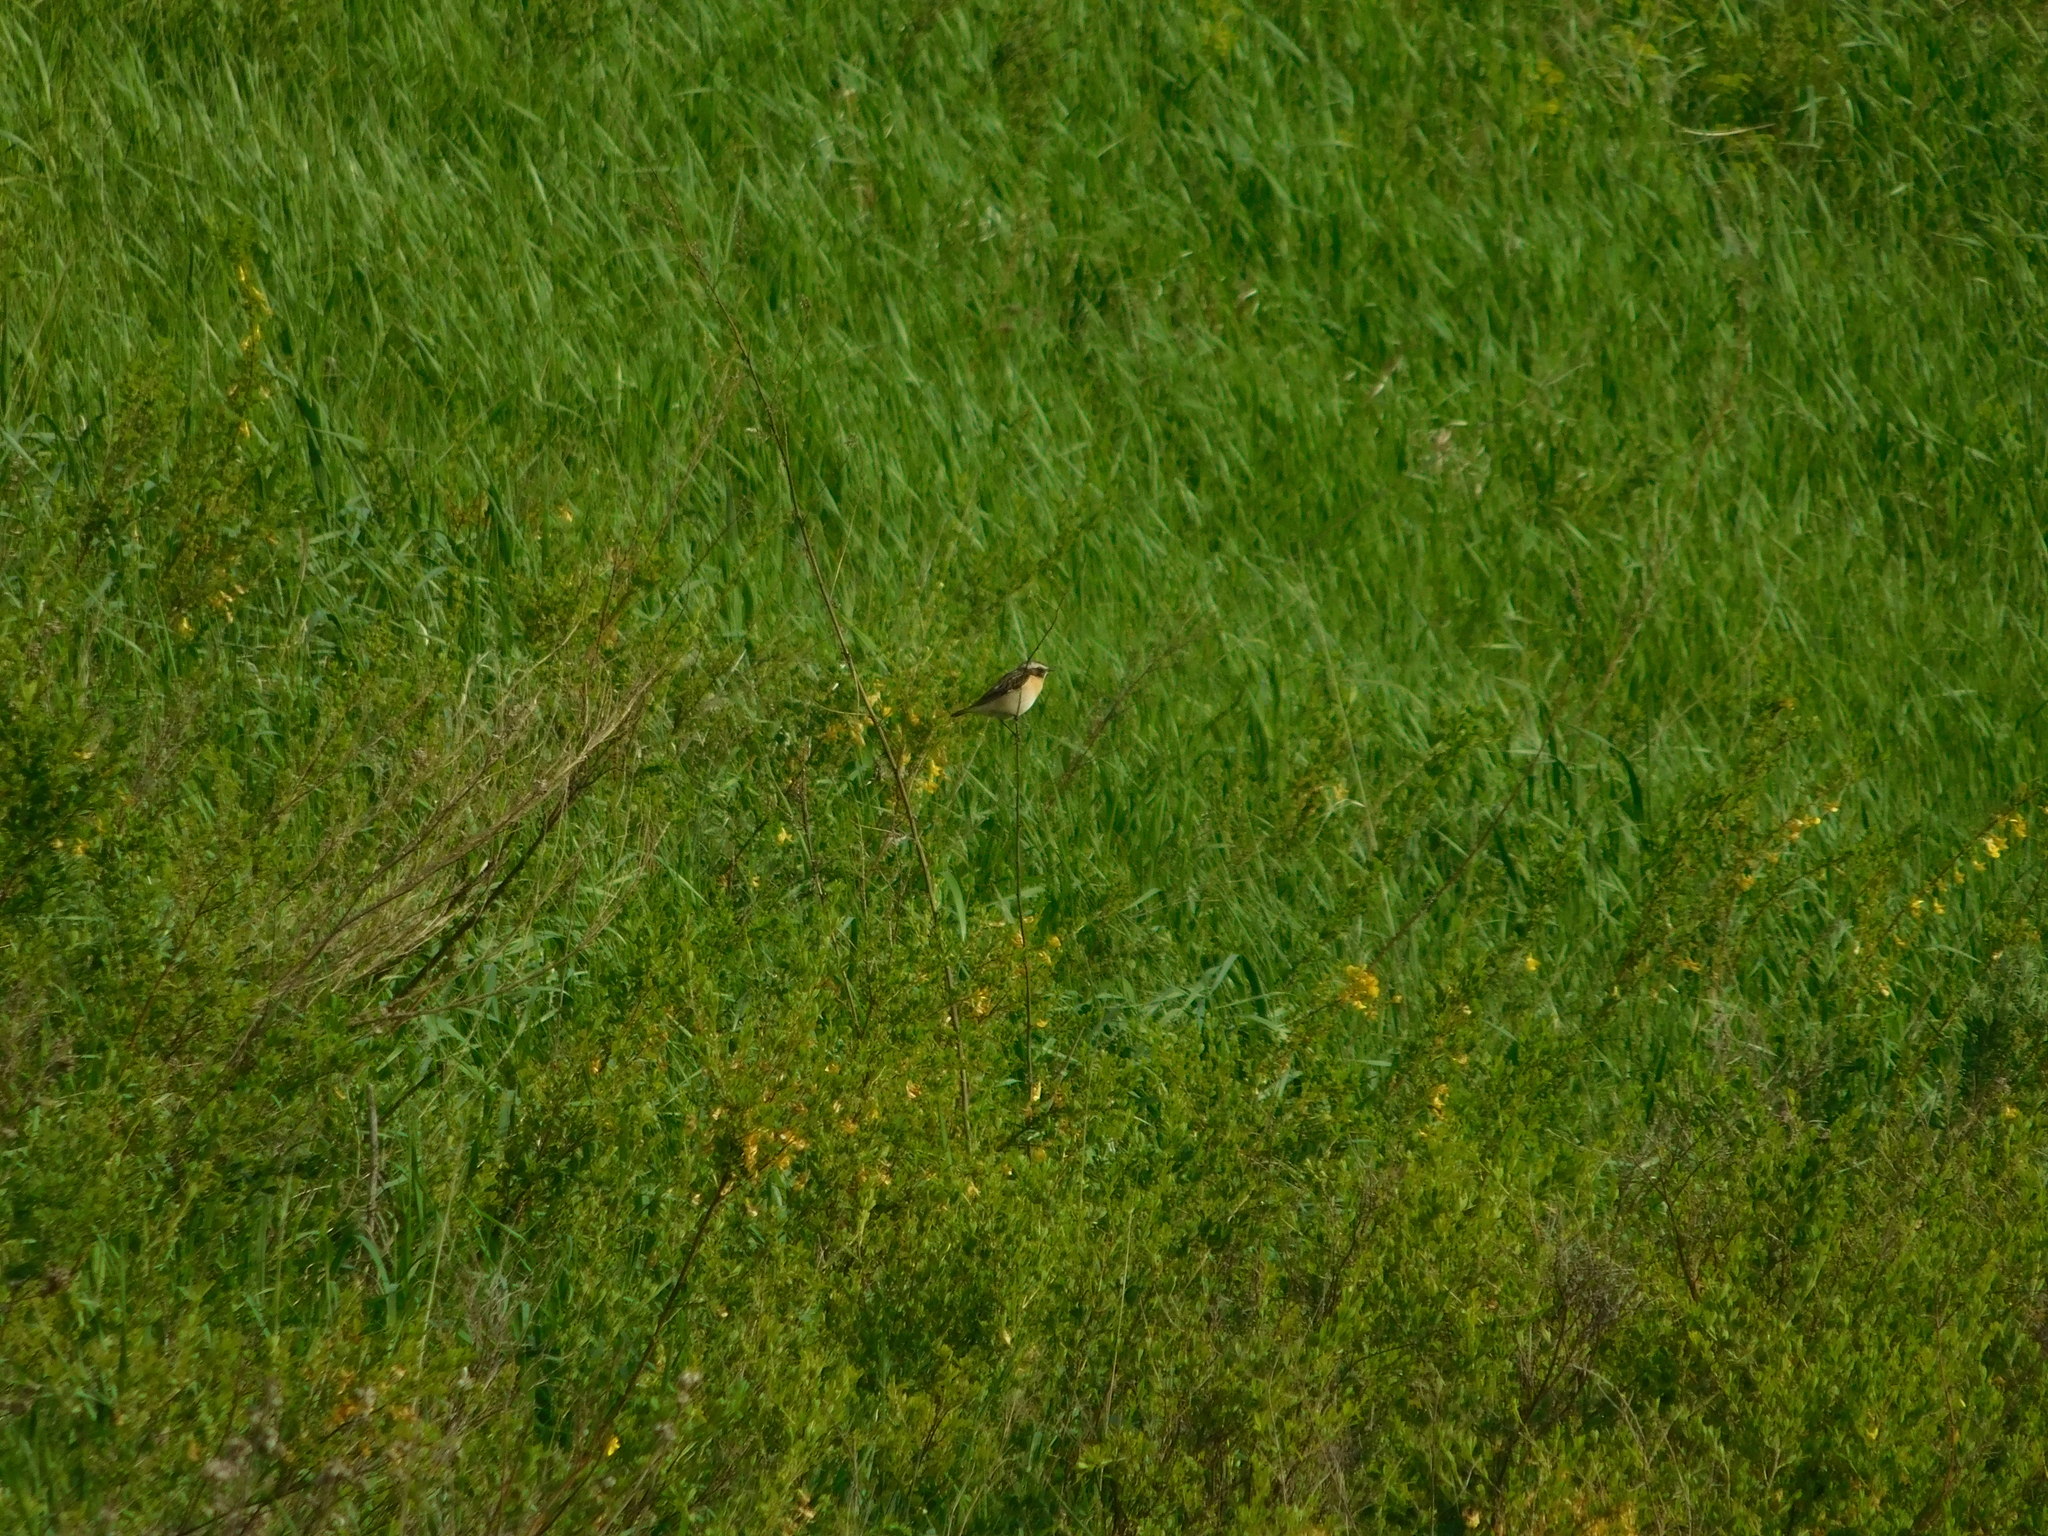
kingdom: Animalia
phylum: Chordata
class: Aves
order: Passeriformes
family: Muscicapidae
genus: Saxicola
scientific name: Saxicola rubetra
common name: Whinchat
